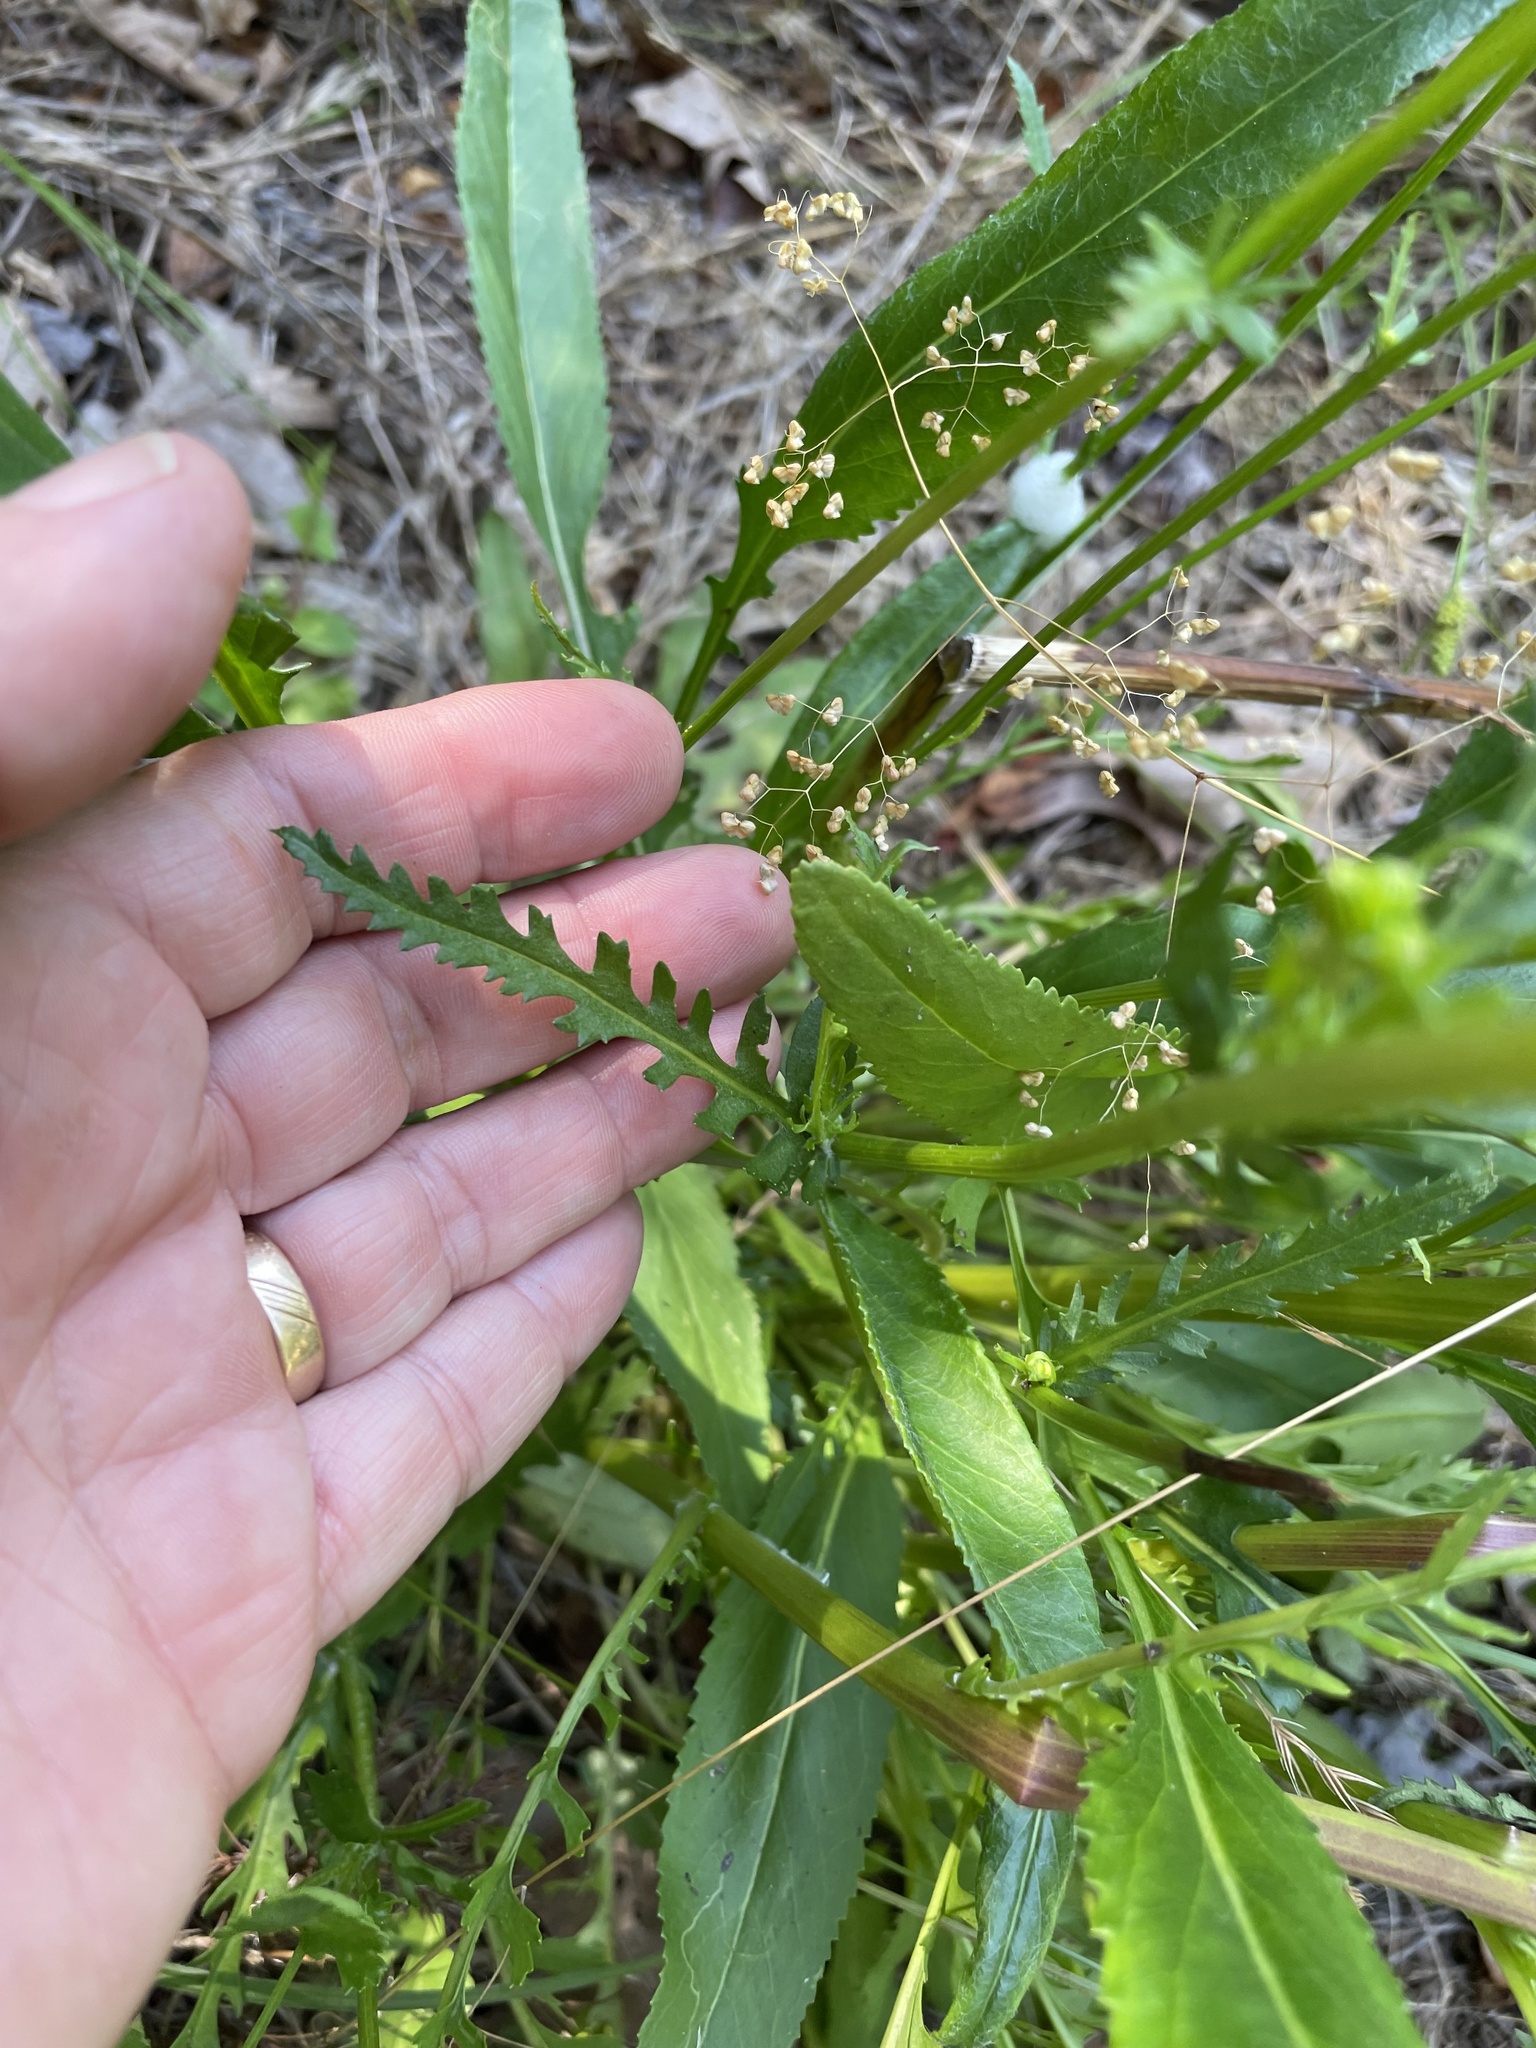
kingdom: Plantae
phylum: Tracheophyta
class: Magnoliopsida
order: Asterales
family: Asteraceae
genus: Packera
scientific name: Packera anonyma
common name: Small ragwort
